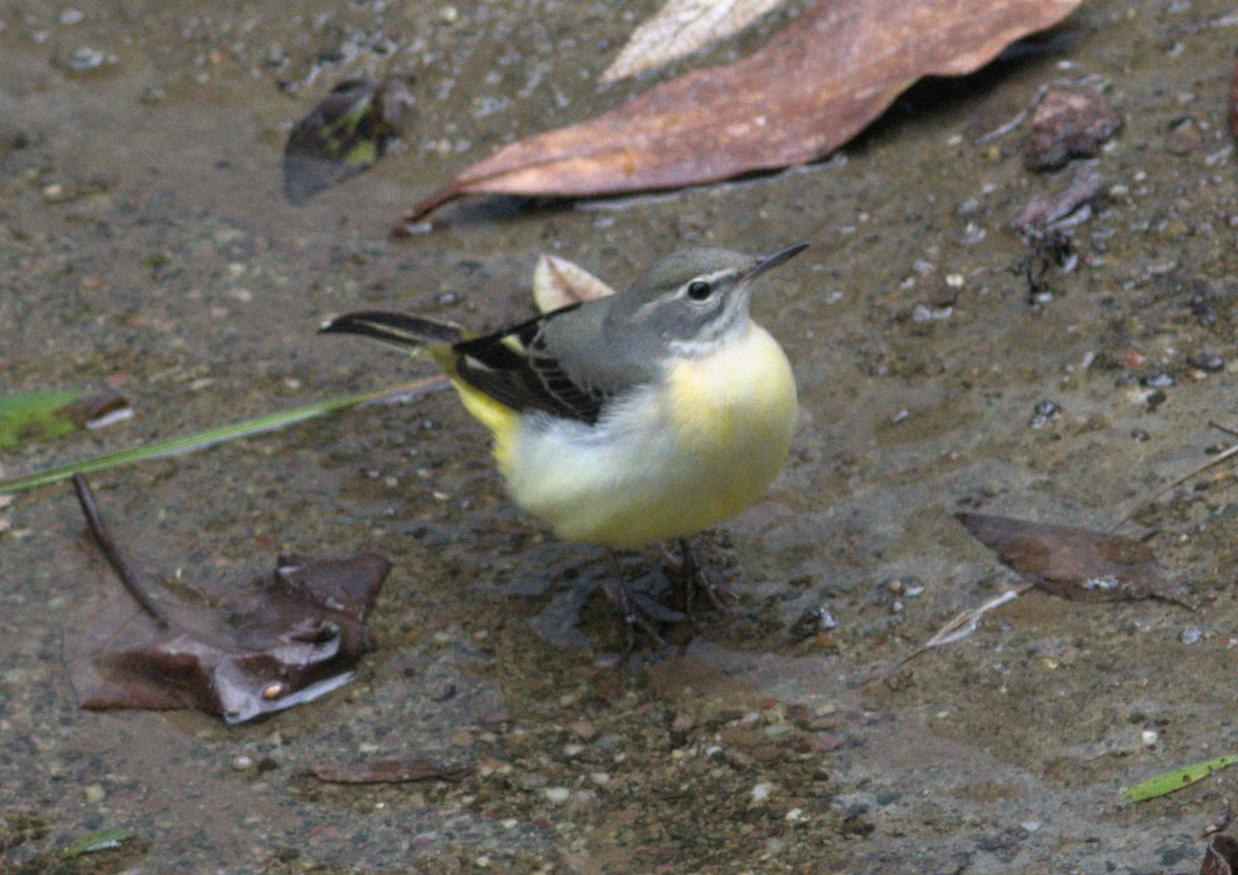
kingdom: Animalia
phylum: Chordata
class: Aves
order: Passeriformes
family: Motacillidae
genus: Motacilla
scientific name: Motacilla cinerea
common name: Grey wagtail
